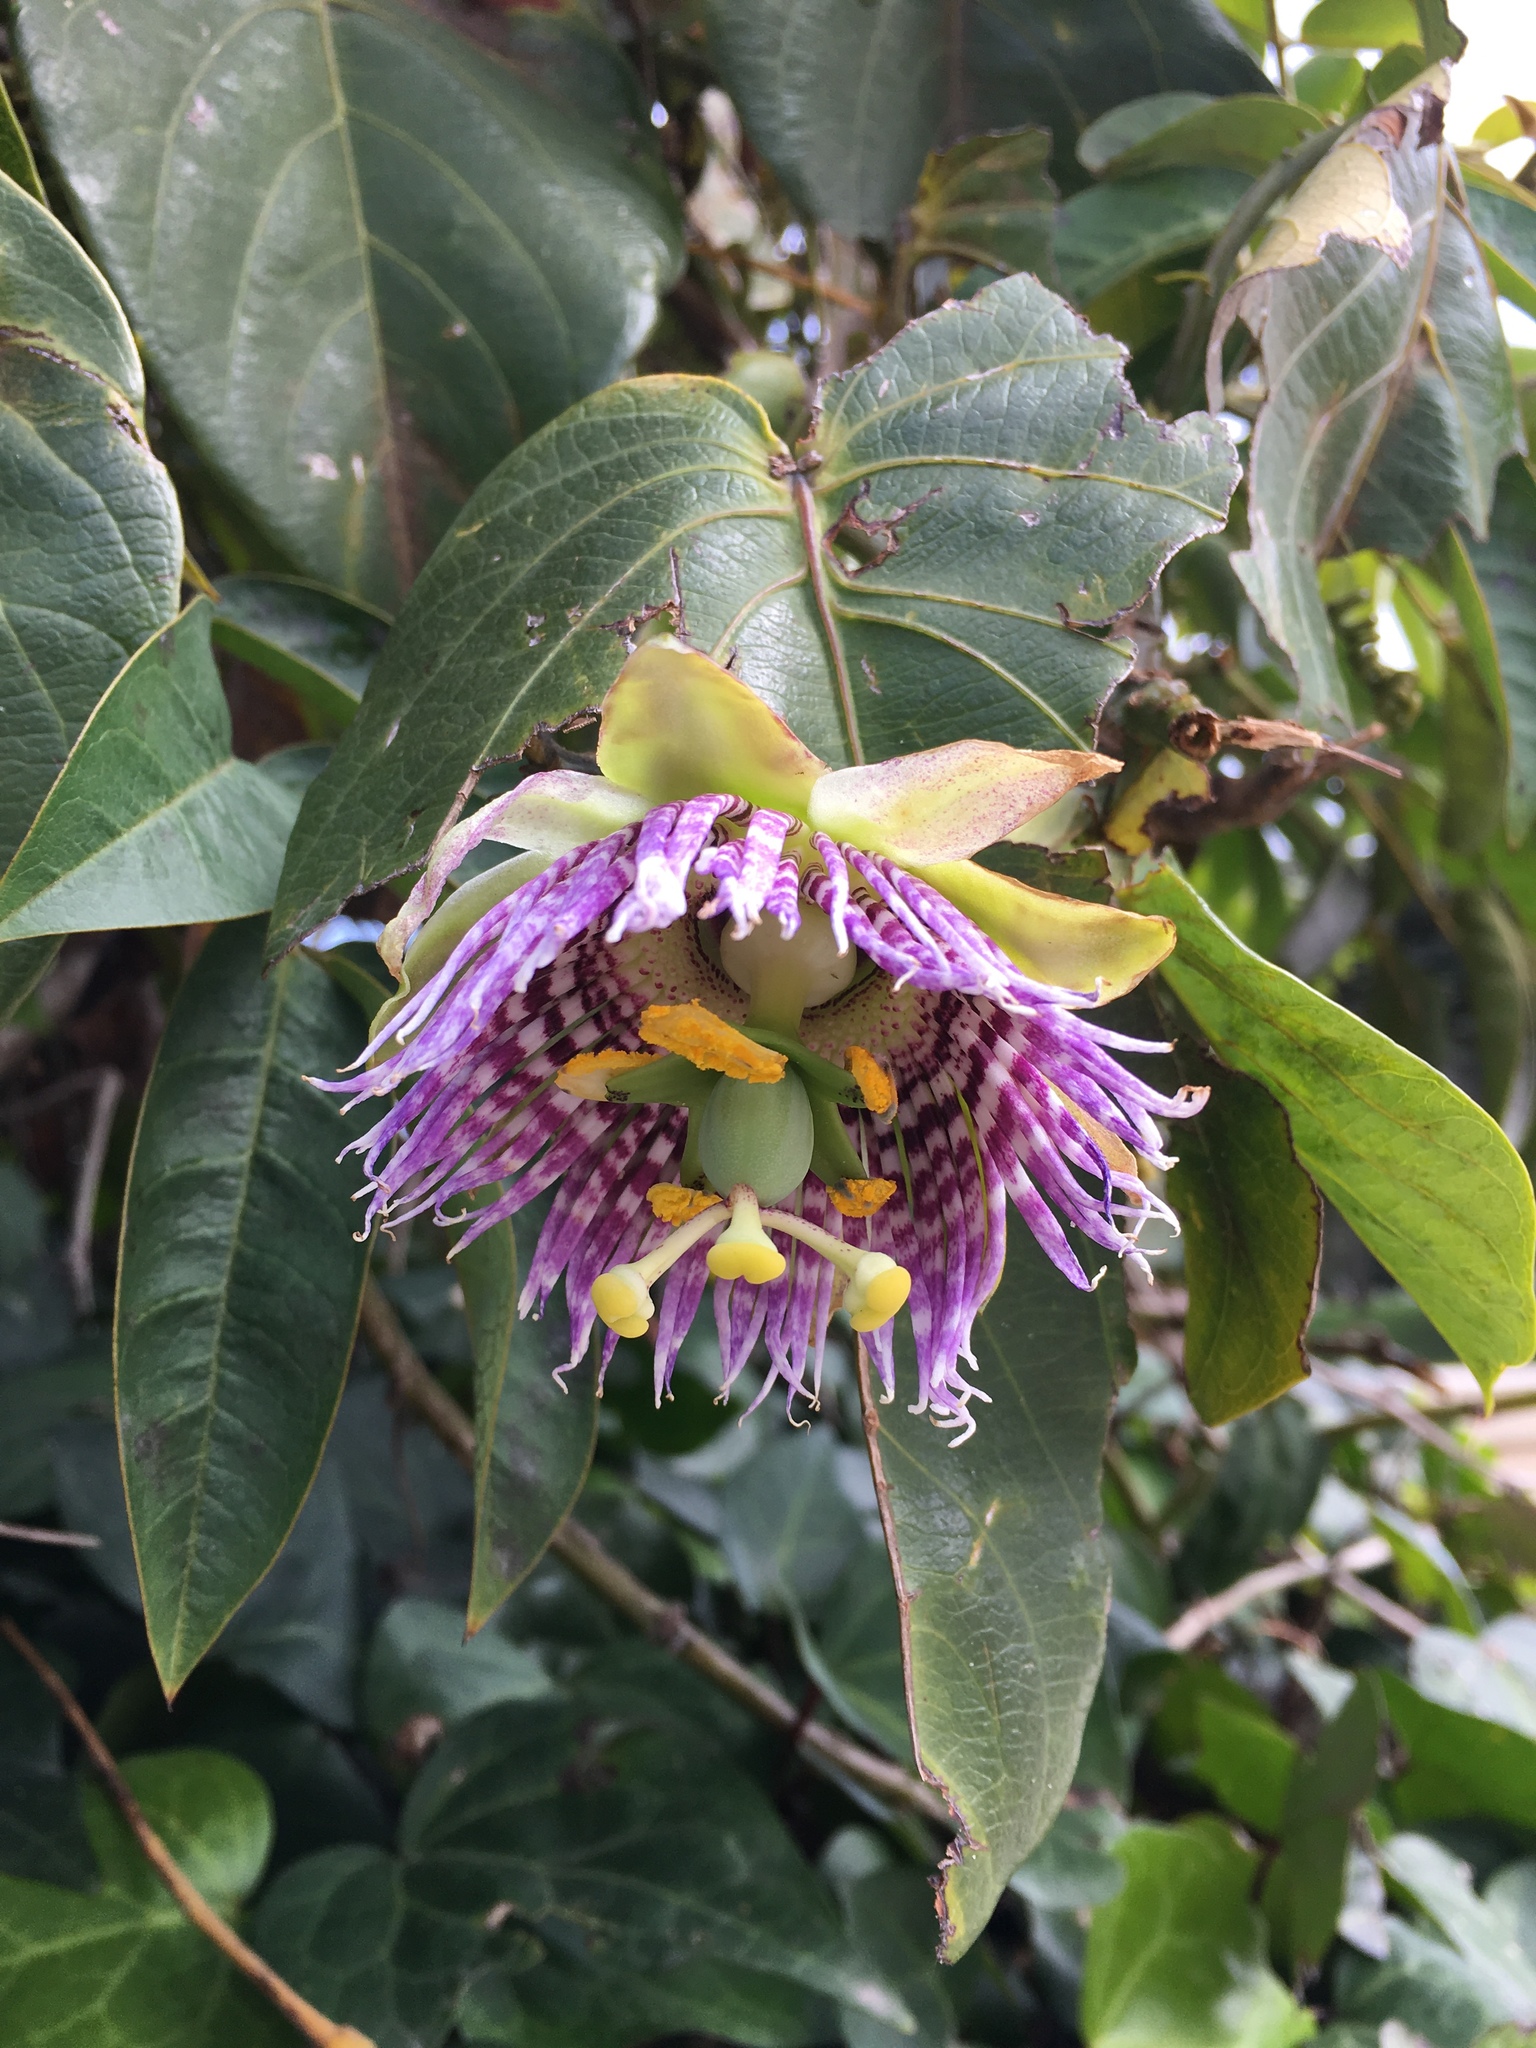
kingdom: Plantae
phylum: Tracheophyta
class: Magnoliopsida
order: Malpighiales
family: Passifloraceae
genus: Passiflora
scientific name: Passiflora ligularis
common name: Sweet granadilla
